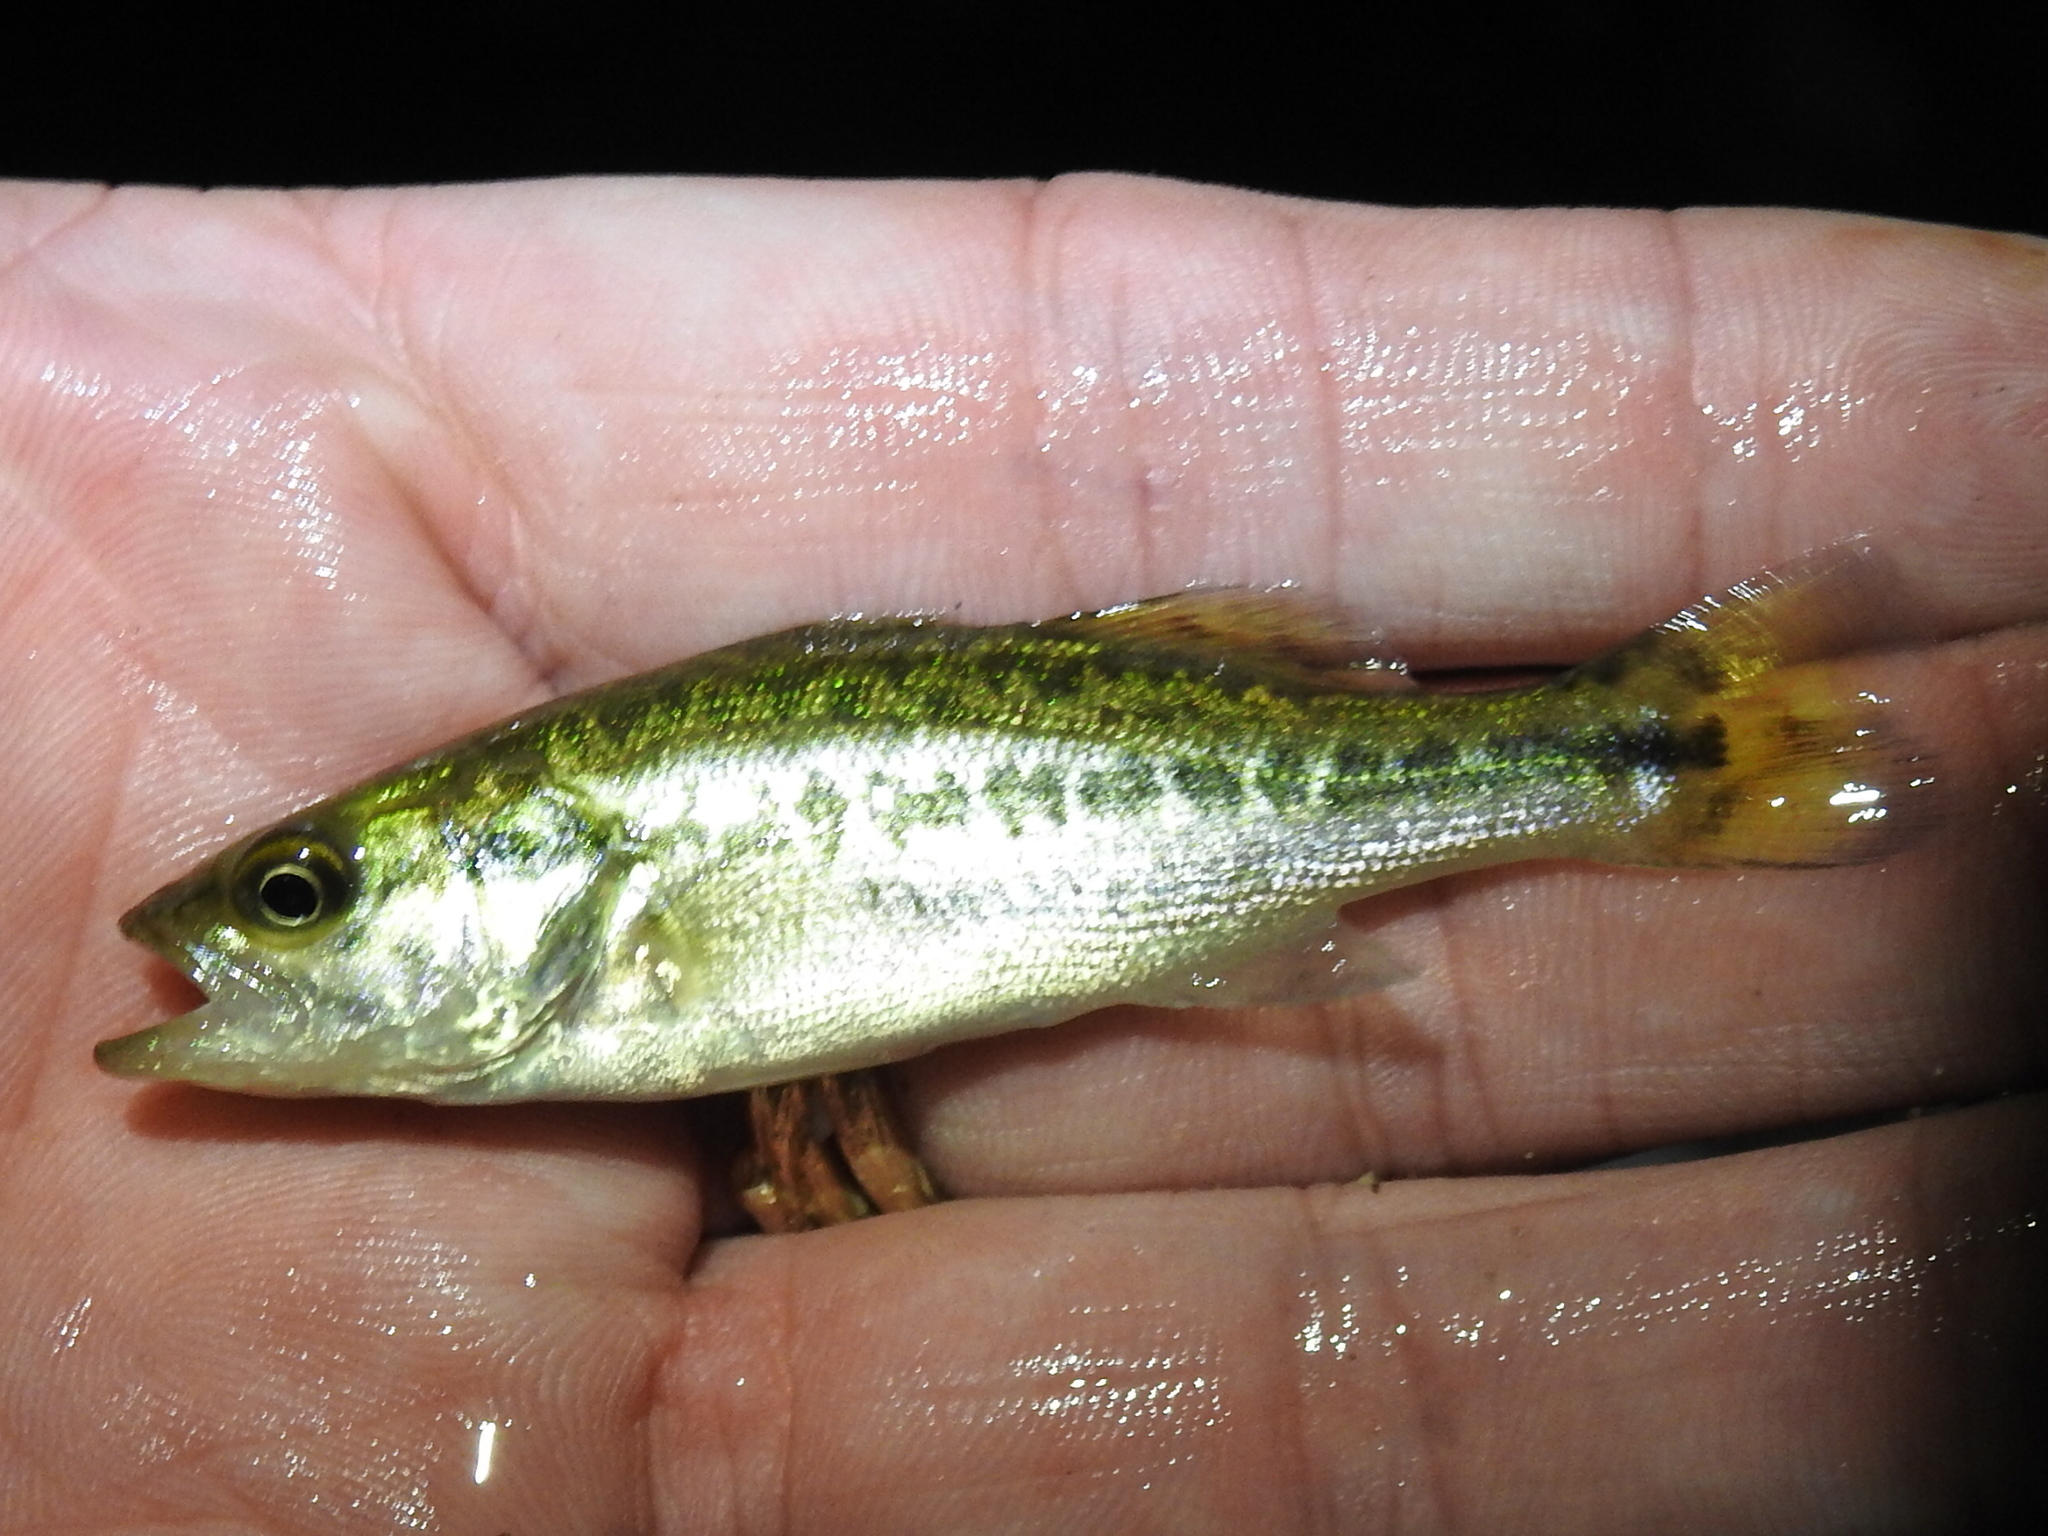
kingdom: Animalia
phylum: Chordata
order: Perciformes
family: Centrarchidae
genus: Micropterus
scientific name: Micropterus
